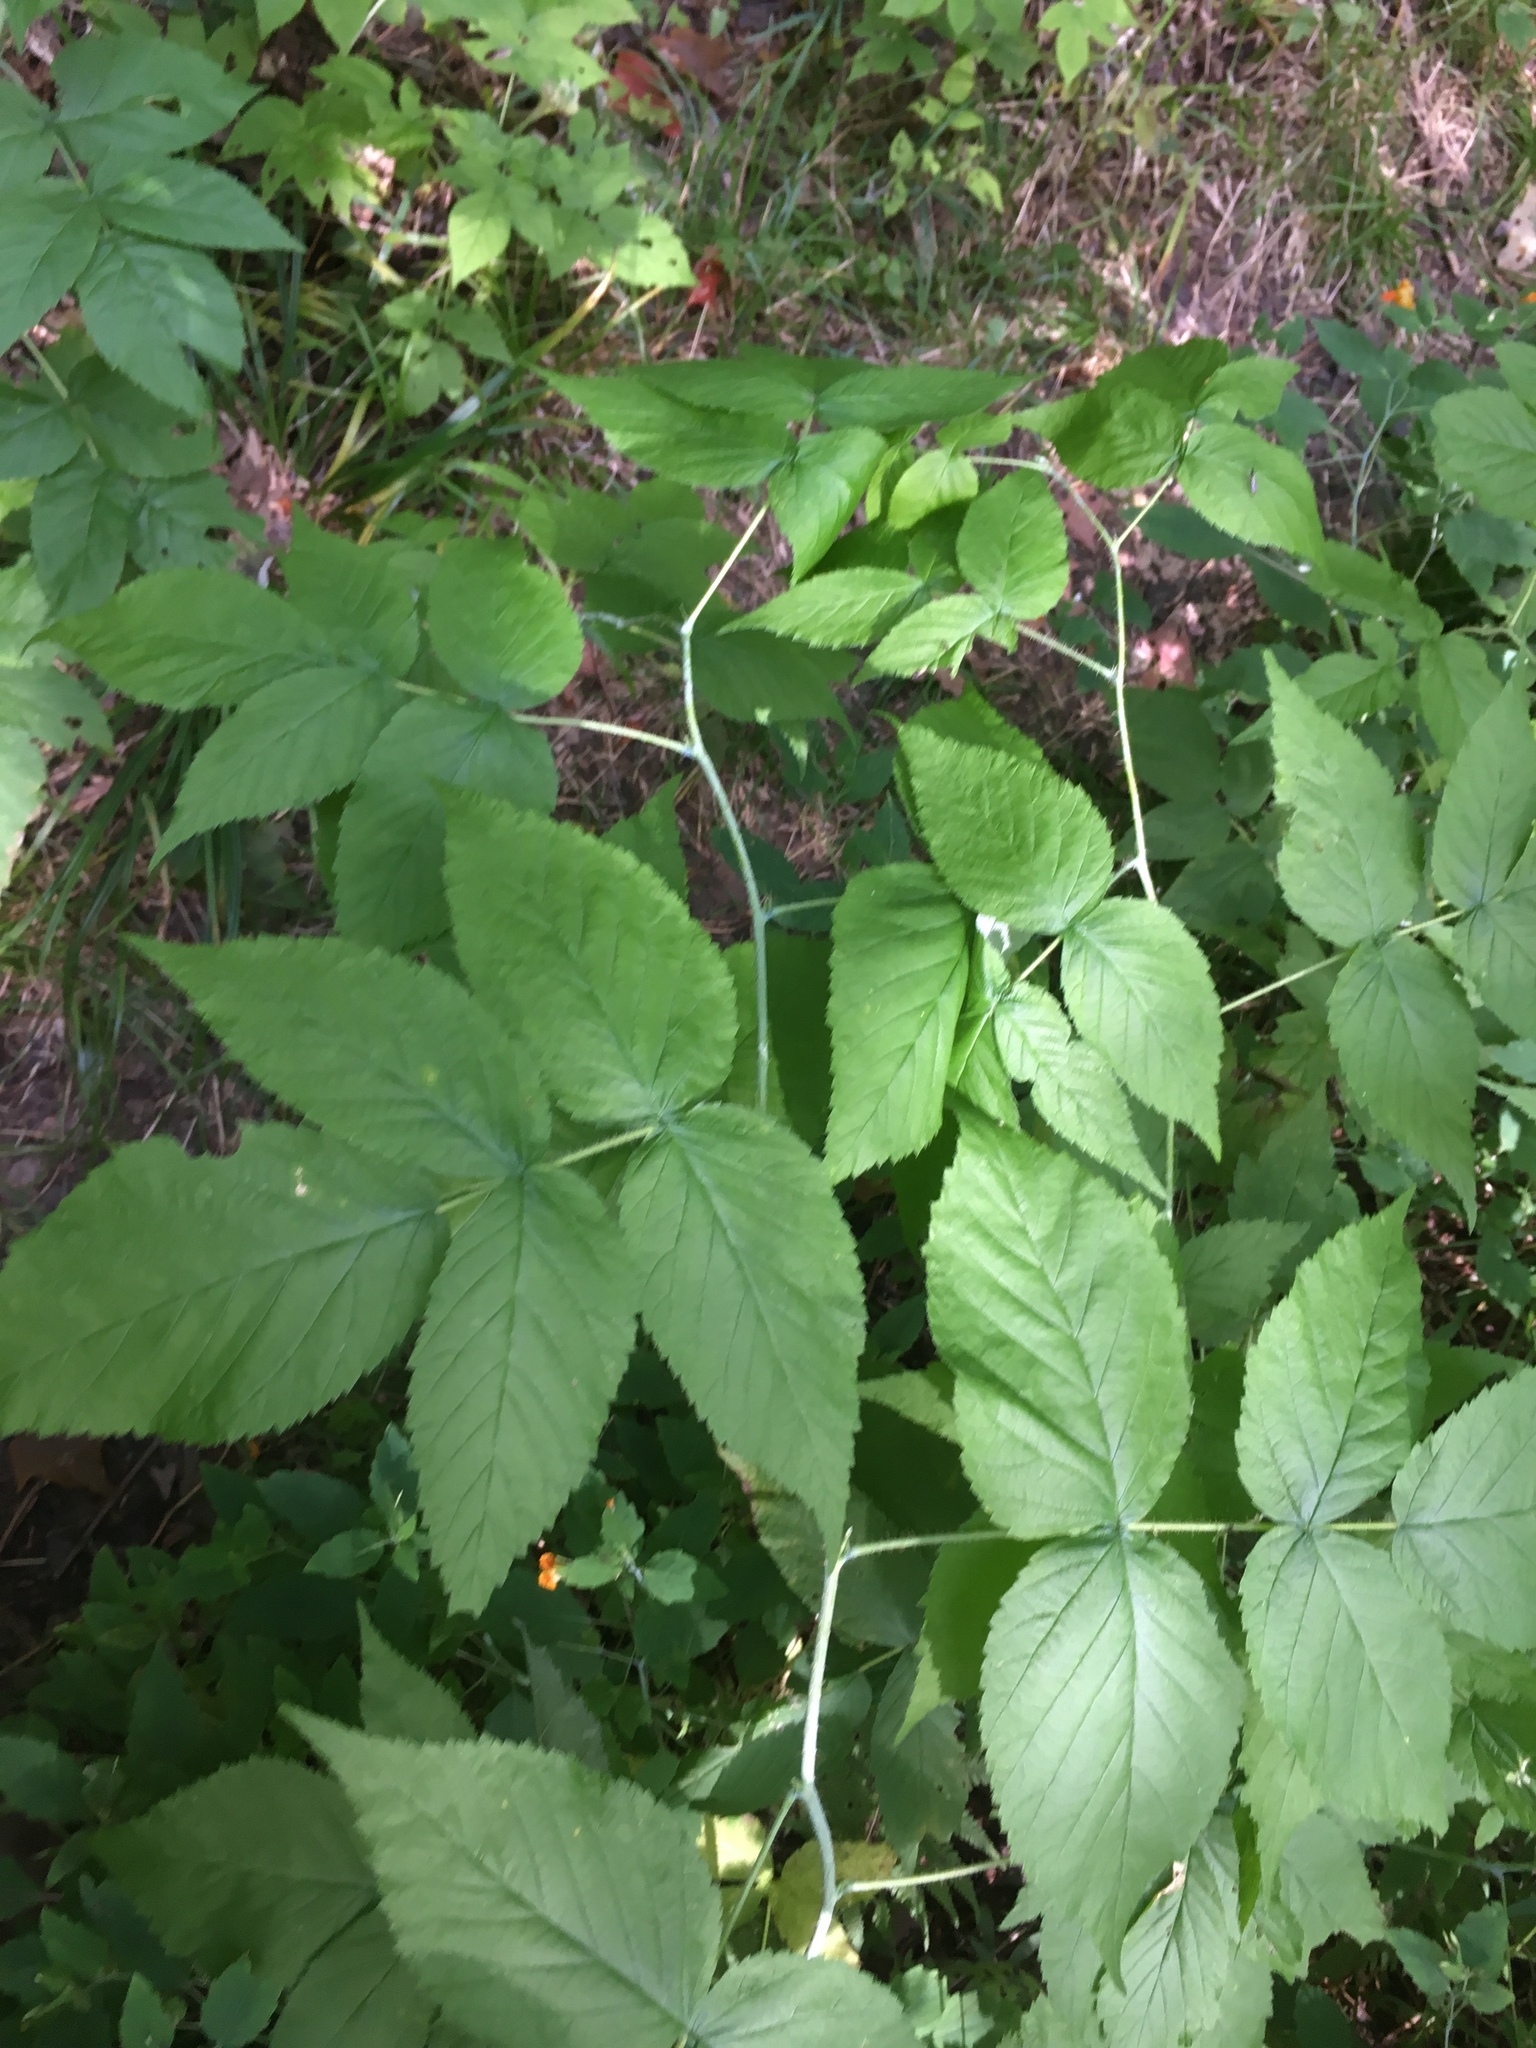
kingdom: Plantae
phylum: Tracheophyta
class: Magnoliopsida
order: Rosales
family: Rosaceae
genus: Rubus
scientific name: Rubus occidentalis
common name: Black raspberry
